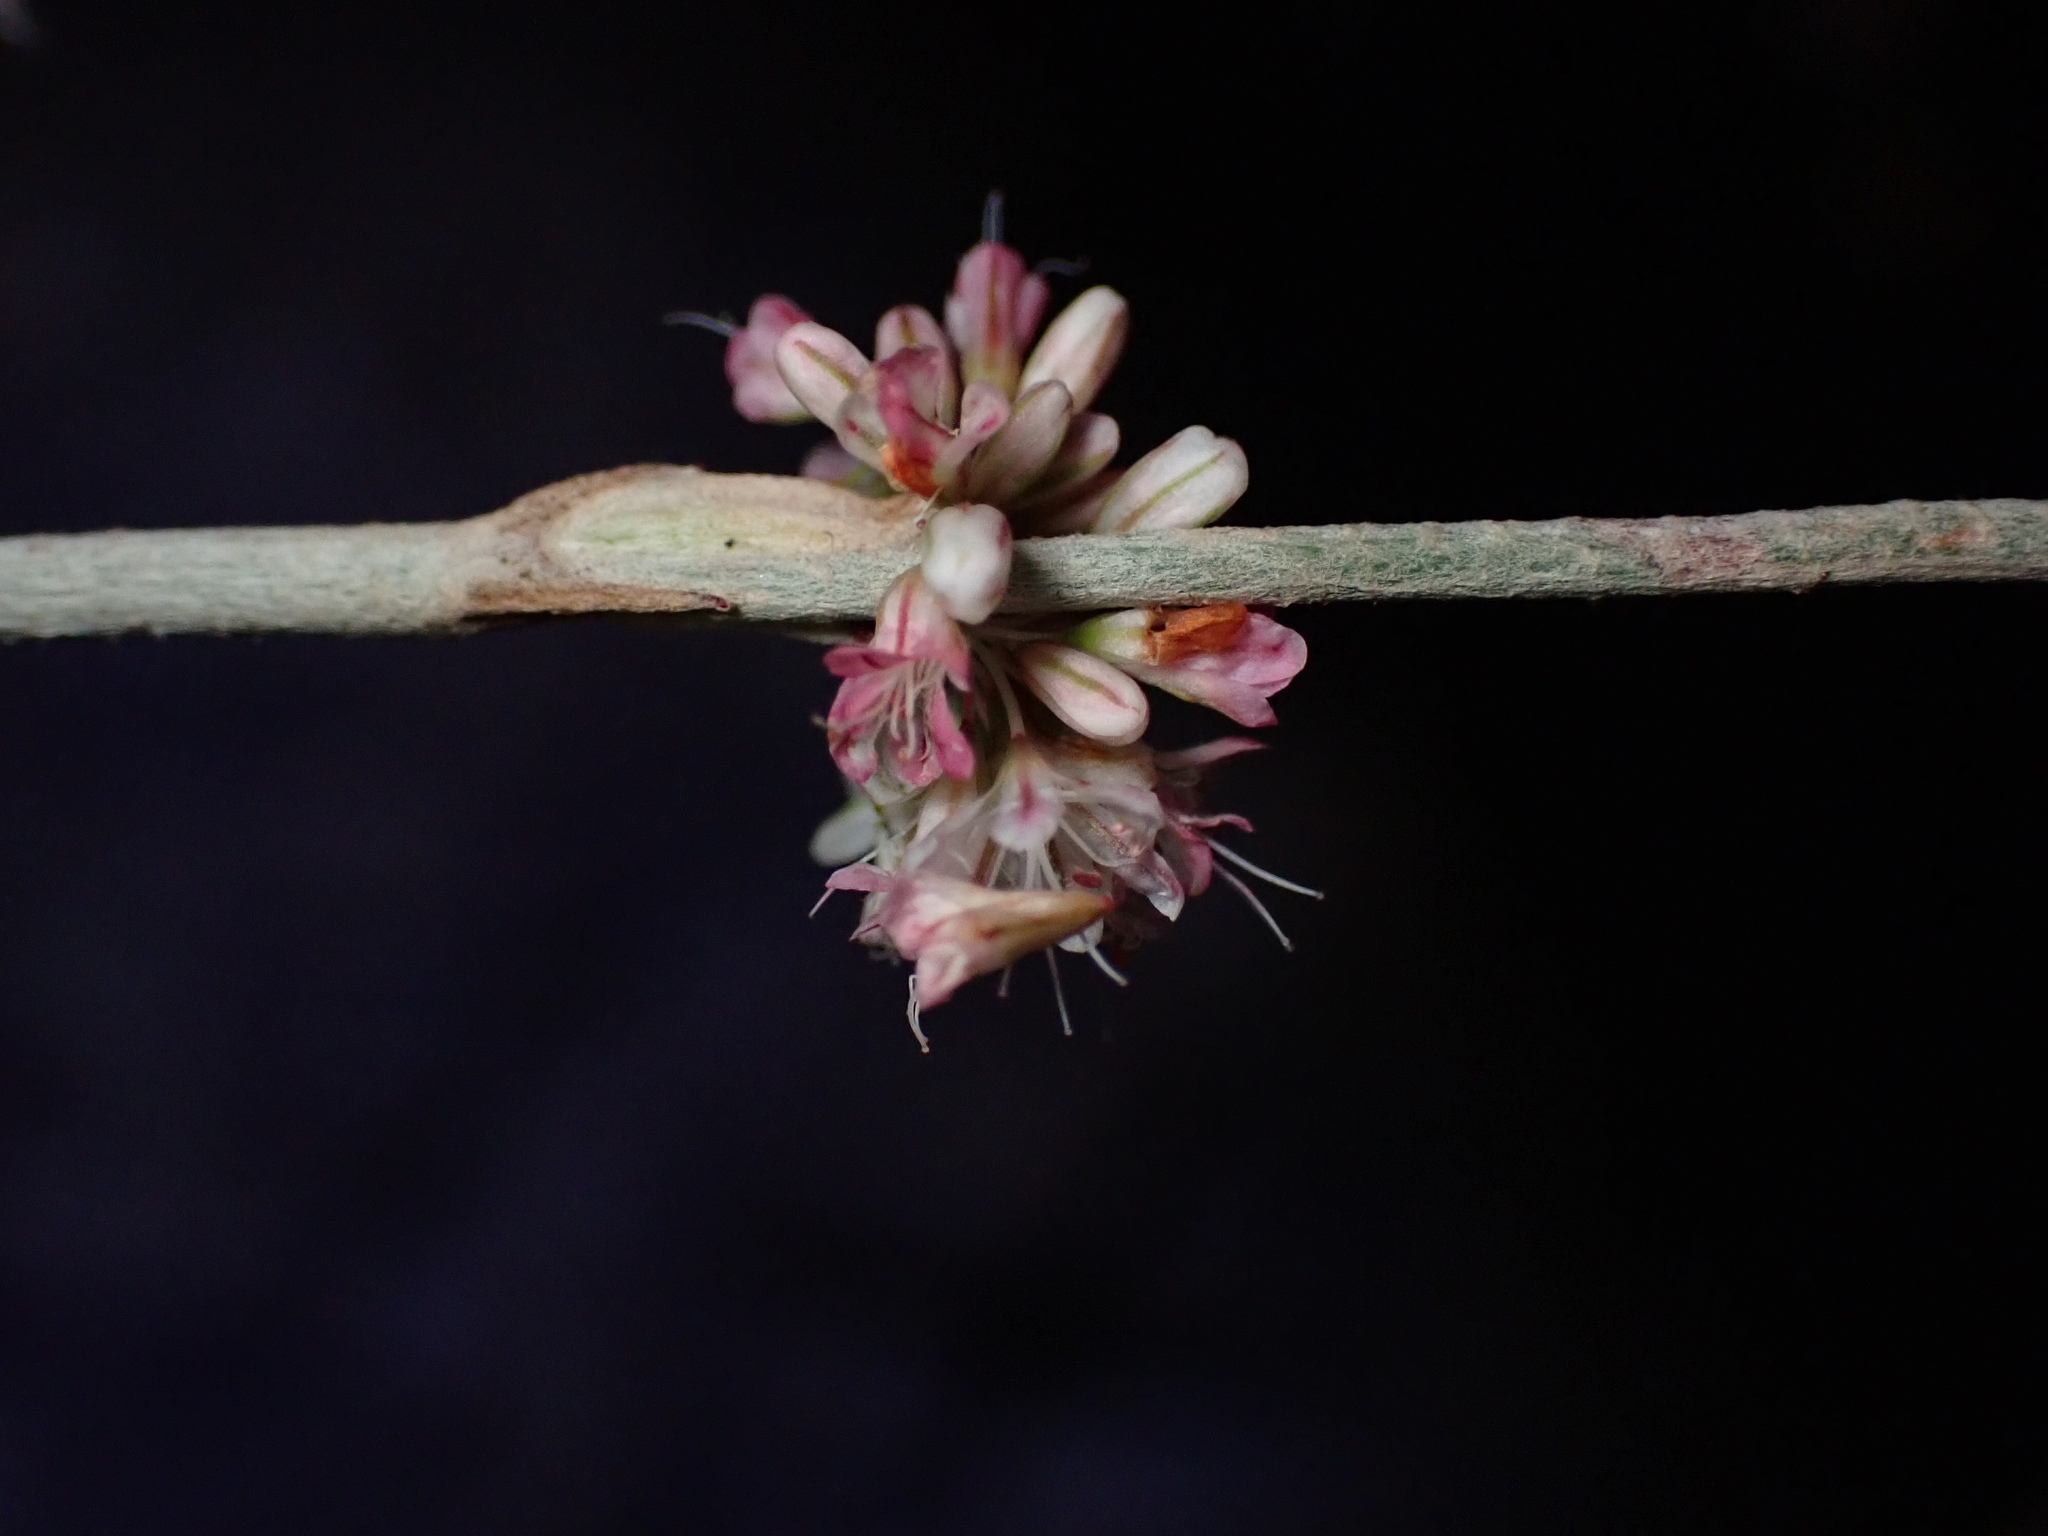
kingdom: Plantae
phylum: Tracheophyta
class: Magnoliopsida
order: Caryophyllales
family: Polygonaceae
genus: Eriogonum
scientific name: Eriogonum elongatum
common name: Long-stem wild buckwheat
